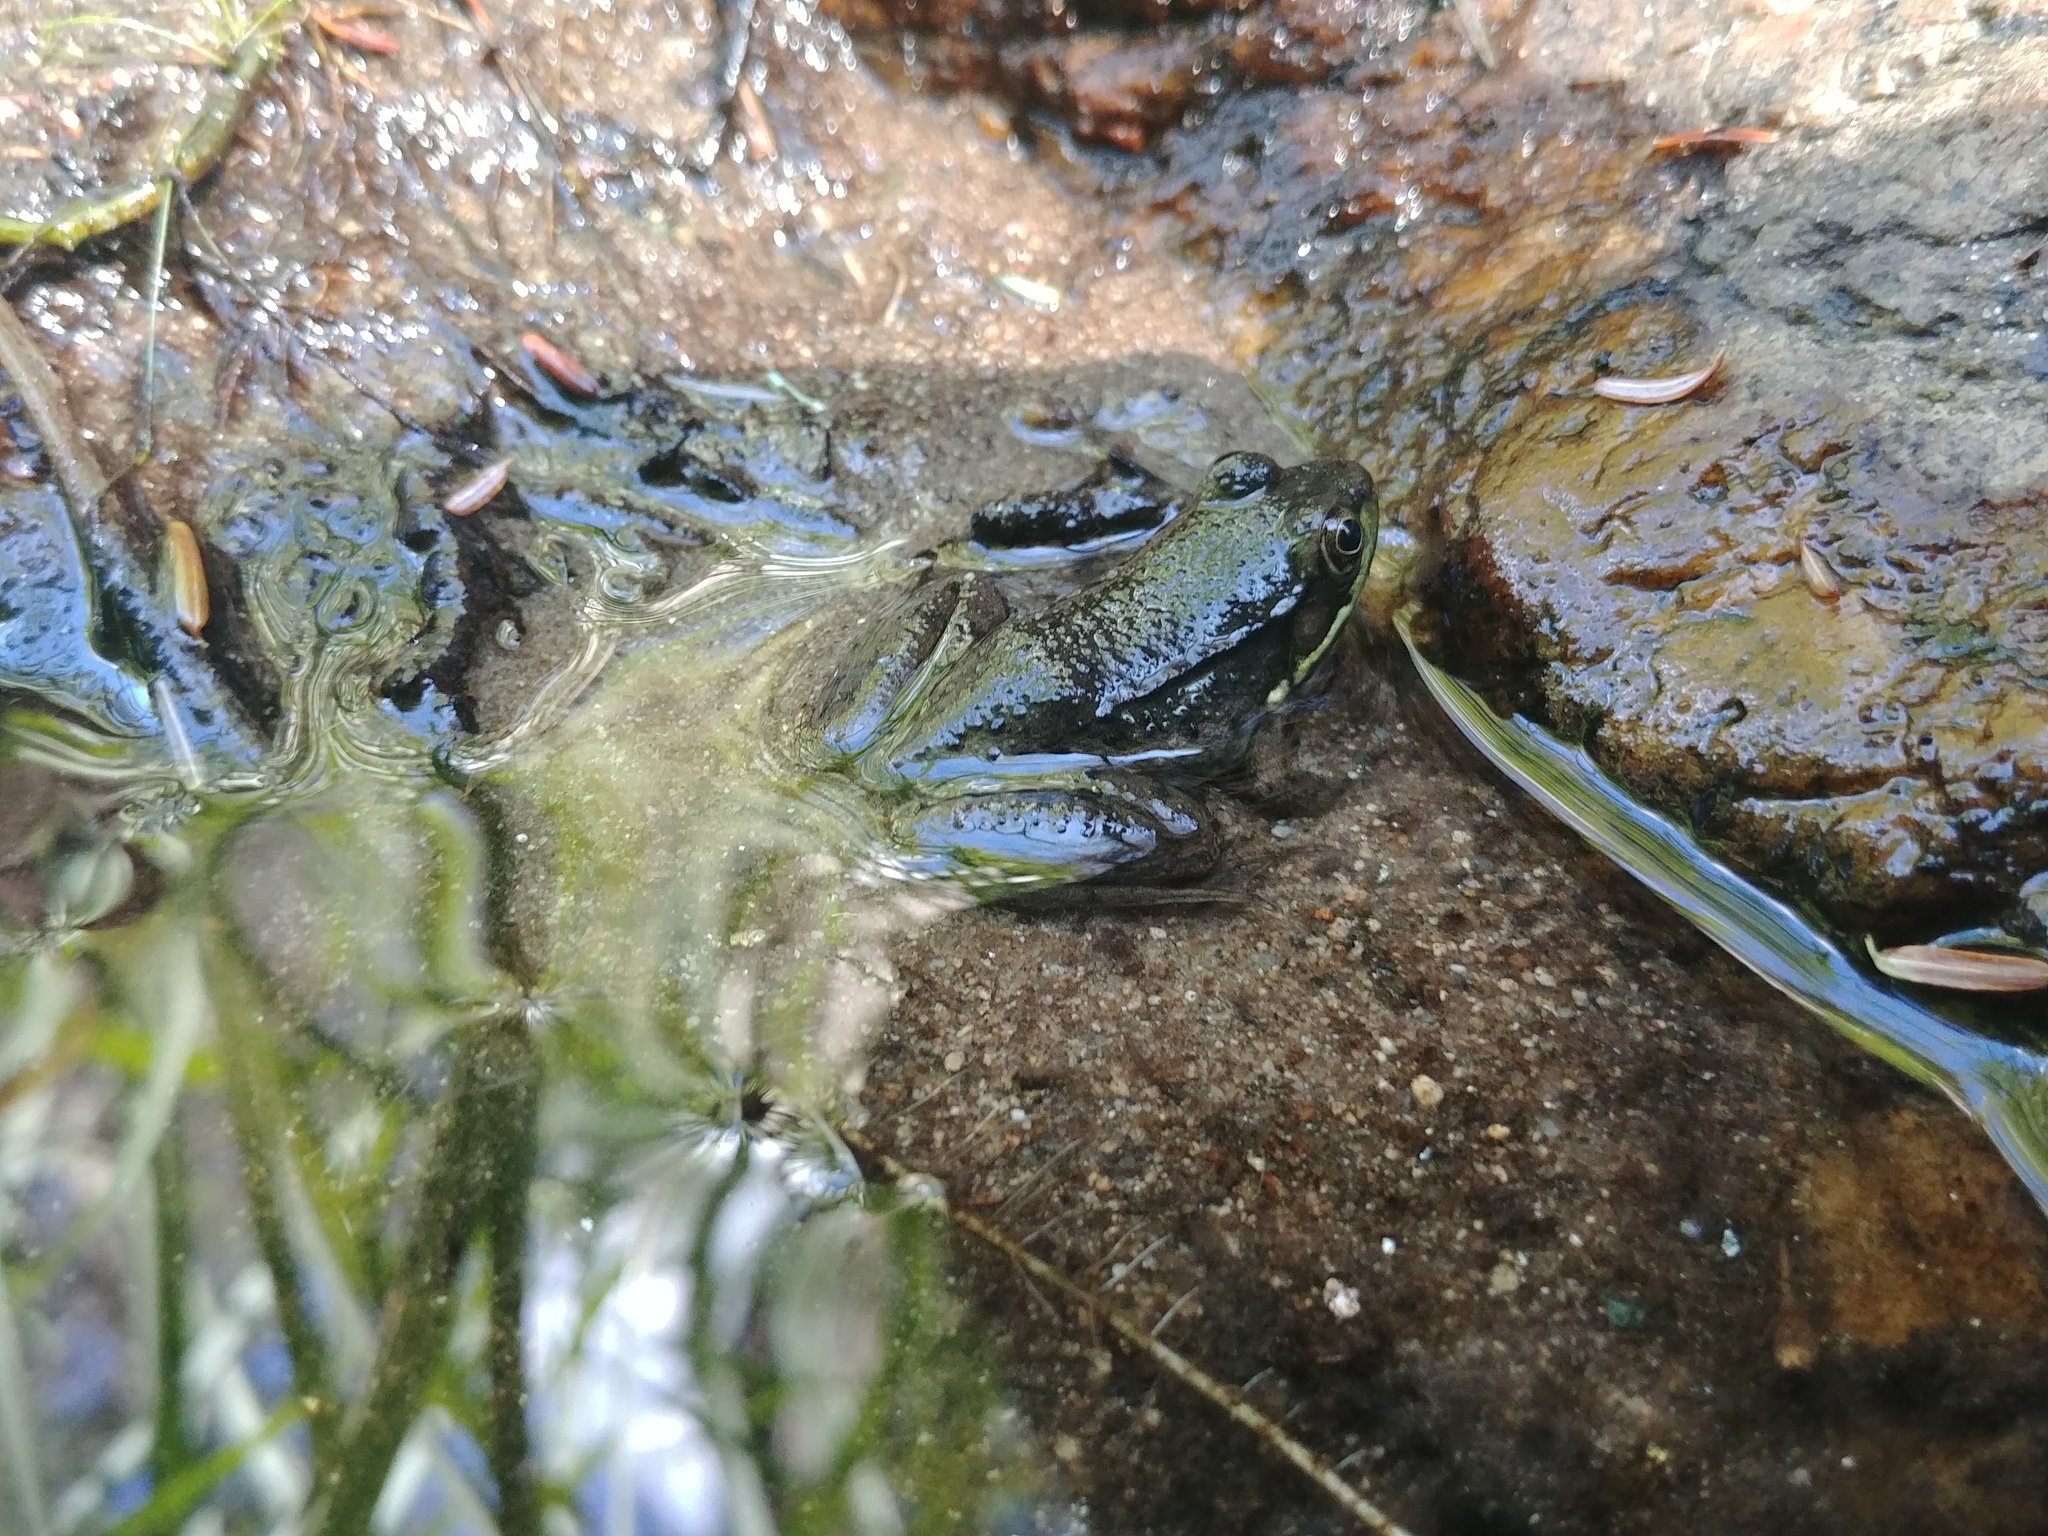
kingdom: Animalia
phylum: Chordata
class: Amphibia
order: Anura
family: Ranidae
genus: Lithobates
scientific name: Lithobates clamitans
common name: Green frog
